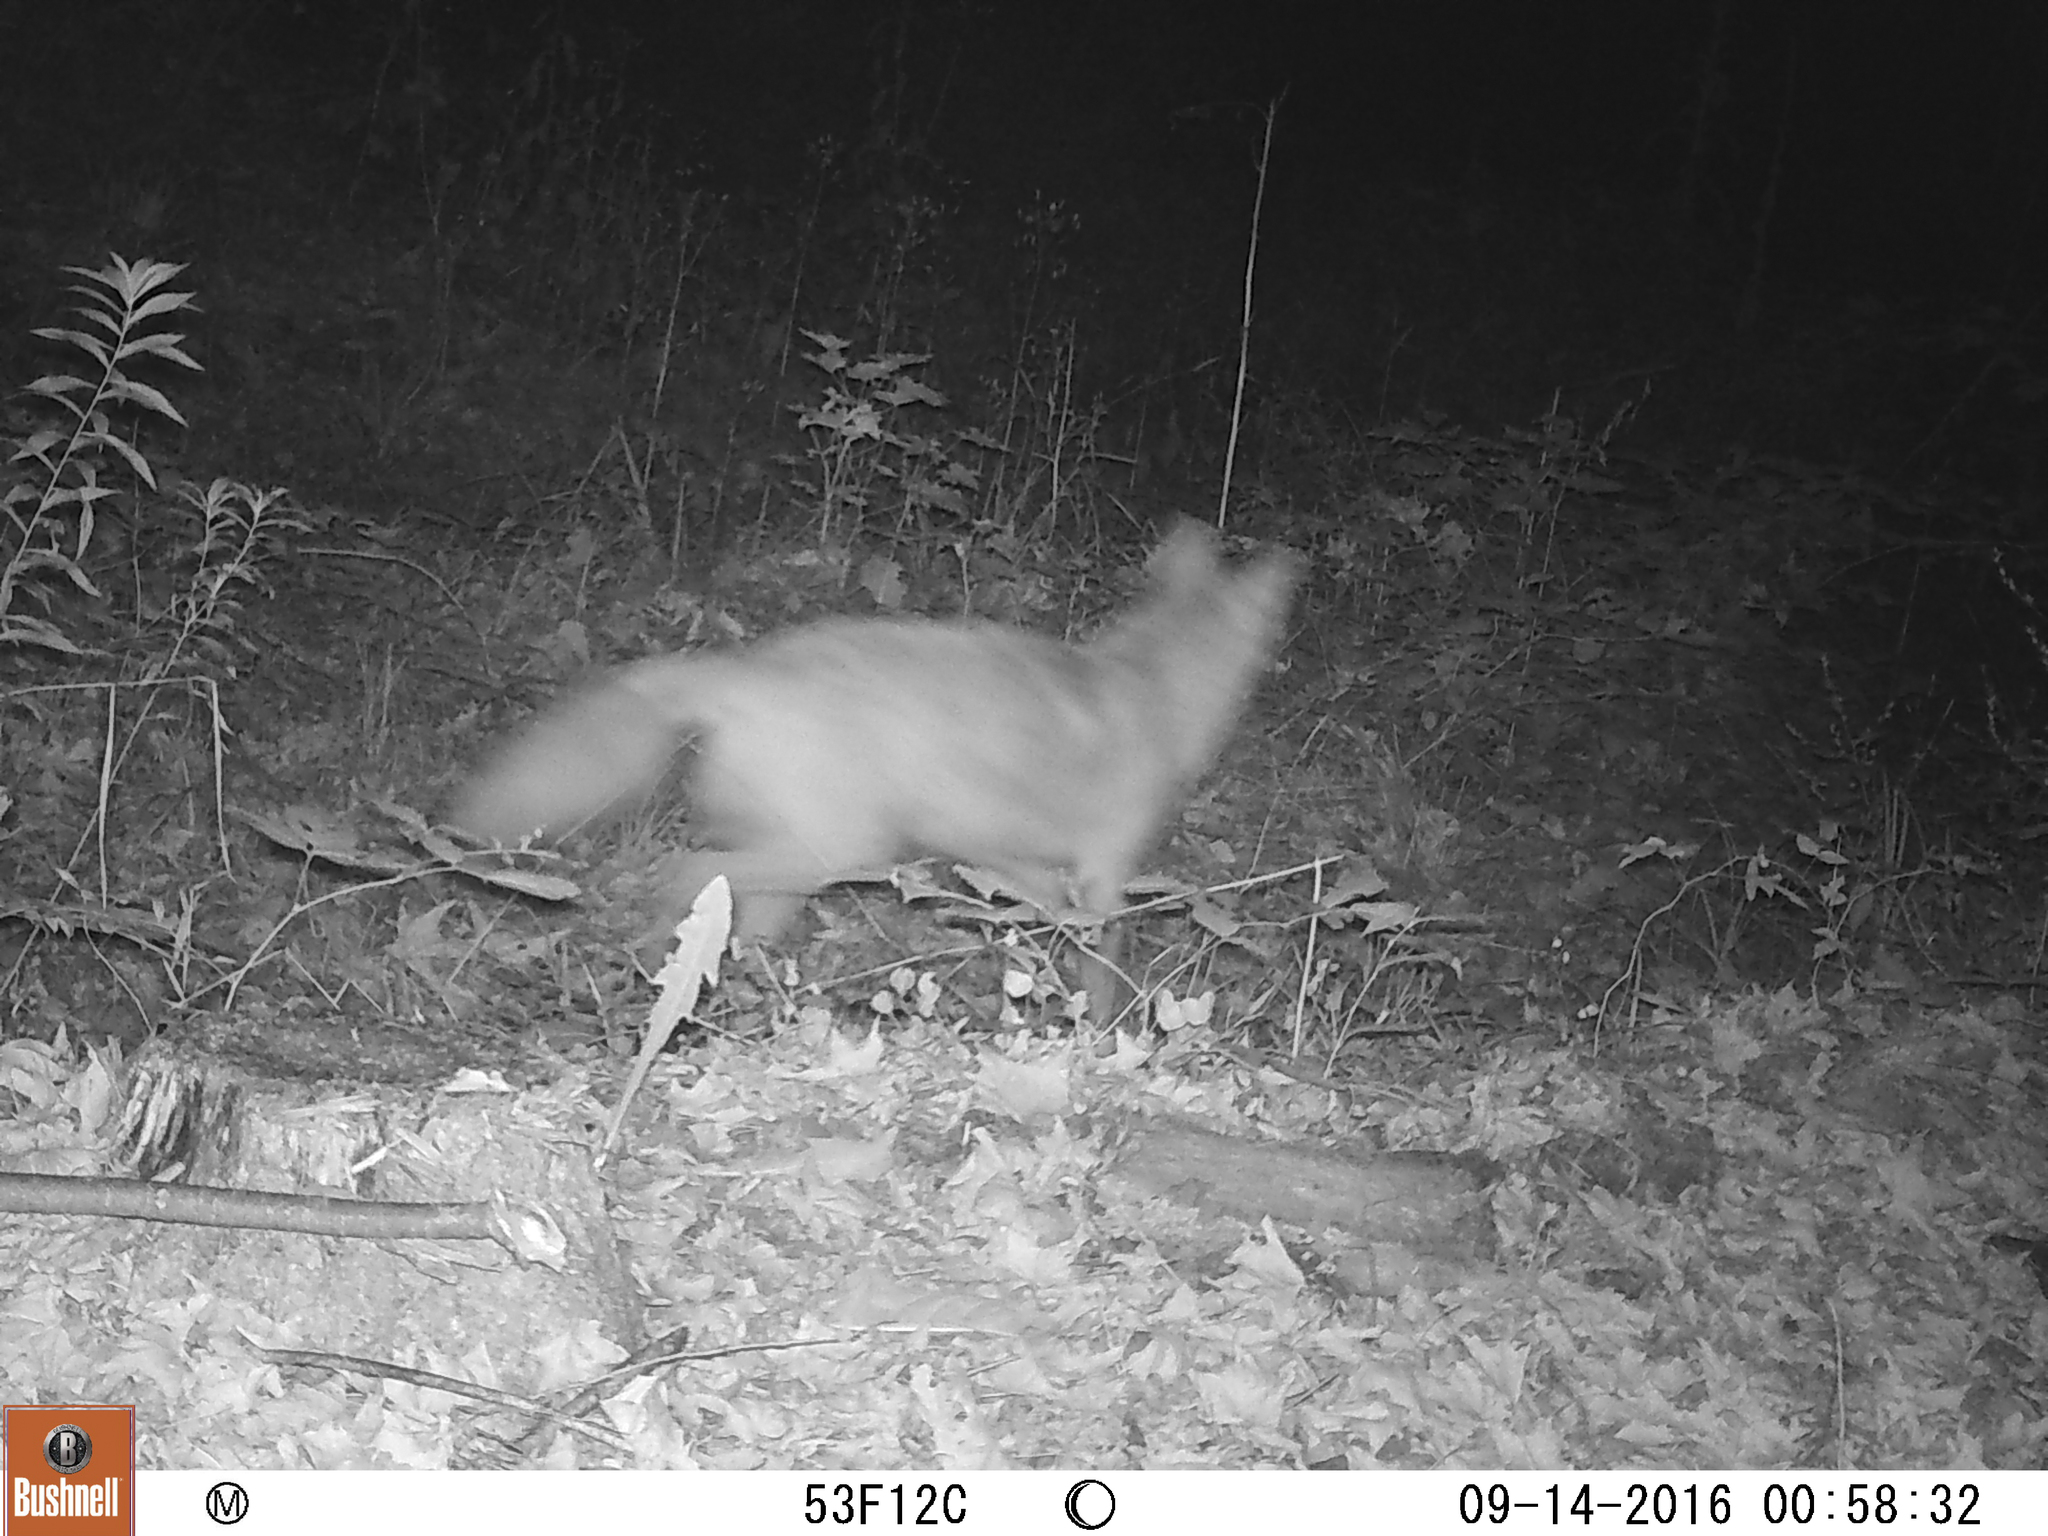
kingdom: Animalia
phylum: Chordata
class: Mammalia
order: Carnivora
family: Canidae
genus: Vulpes
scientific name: Vulpes vulpes
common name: Red fox
